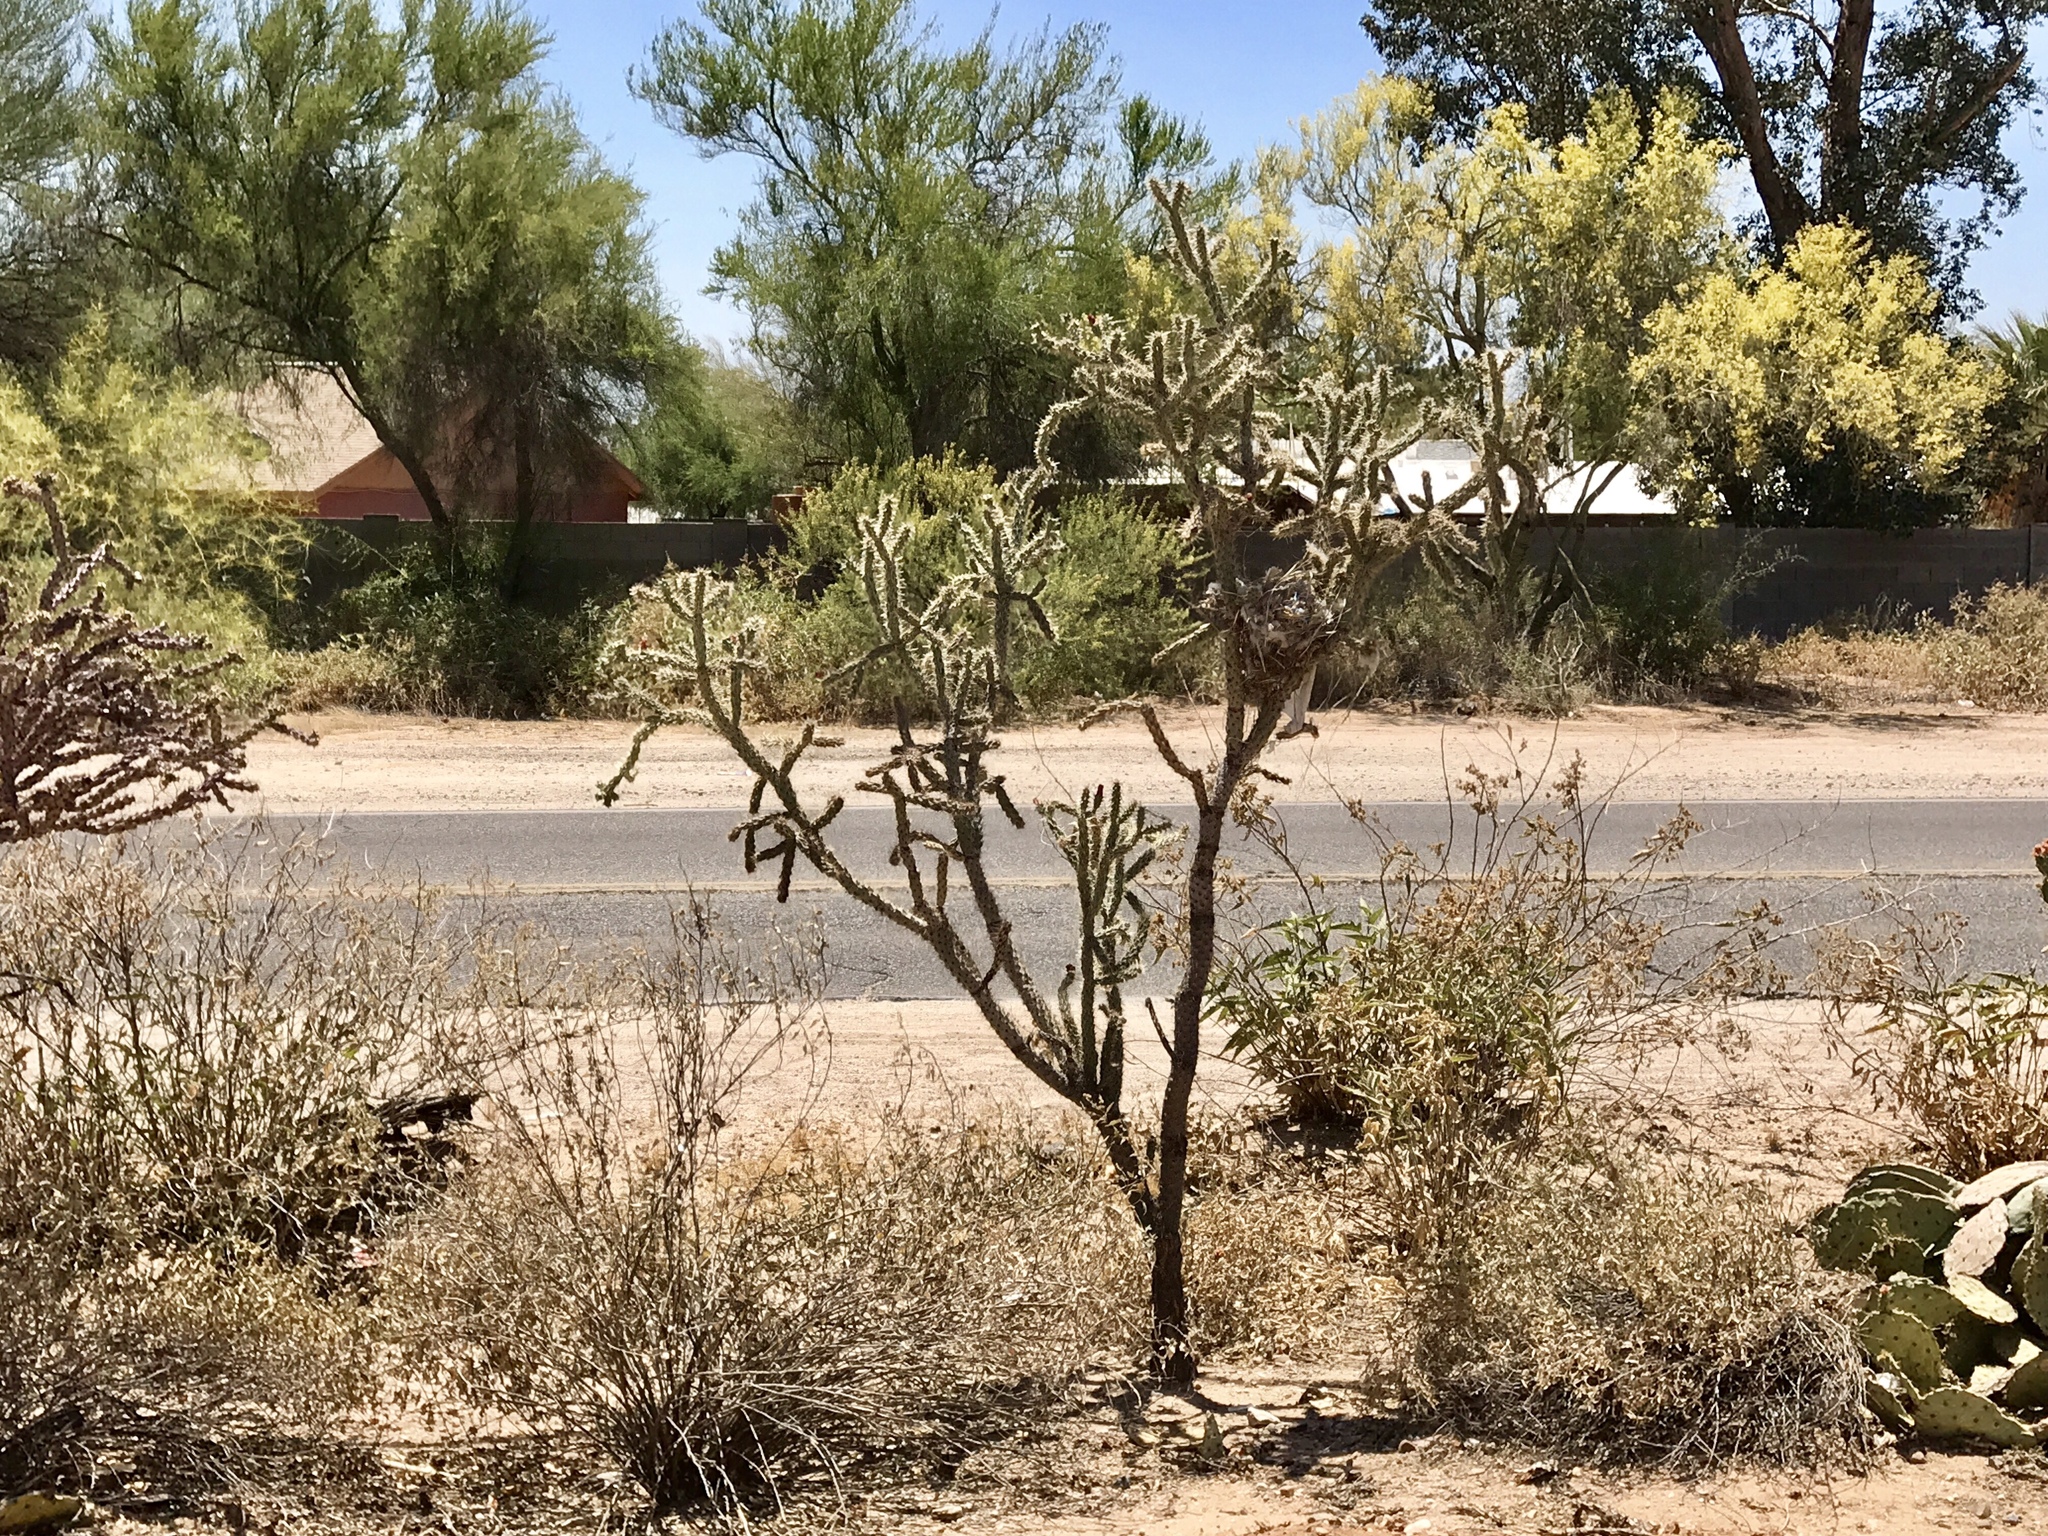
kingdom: Plantae
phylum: Tracheophyta
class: Magnoliopsida
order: Caryophyllales
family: Cactaceae
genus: Cylindropuntia
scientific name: Cylindropuntia acanthocarpa
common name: Buckhorn cholla
